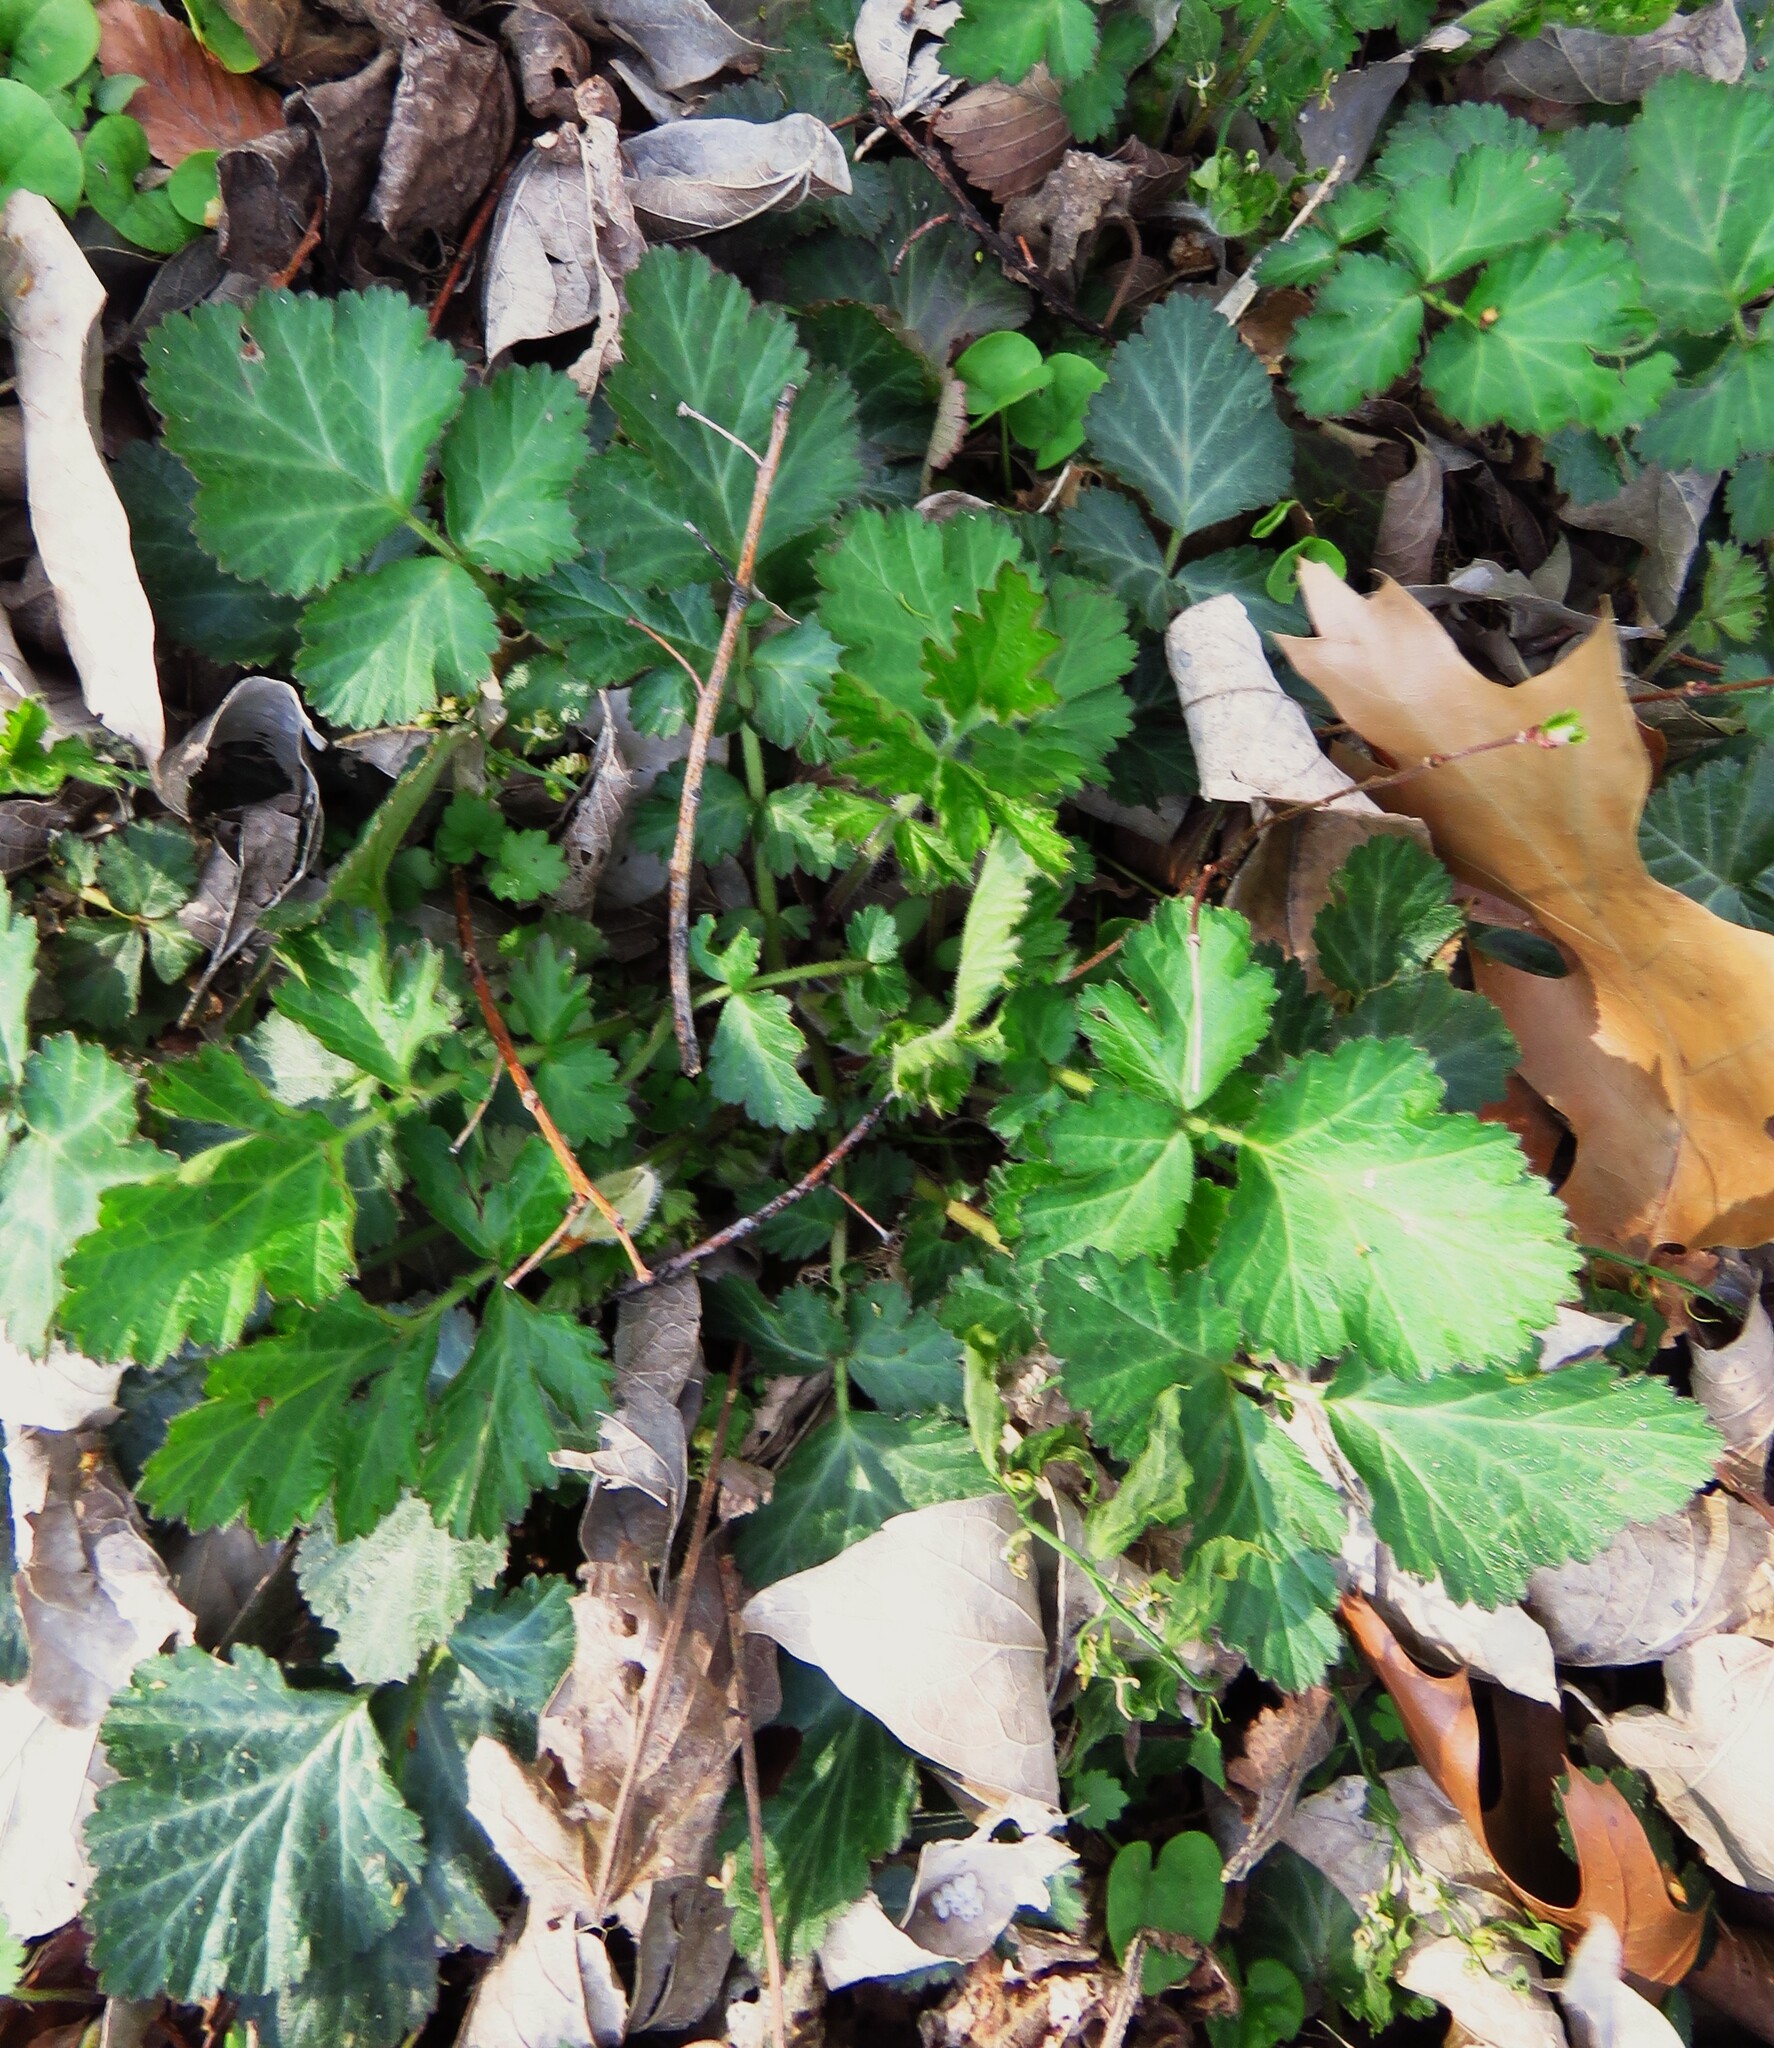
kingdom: Plantae
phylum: Tracheophyta
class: Magnoliopsida
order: Rosales
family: Rosaceae
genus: Geum
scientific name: Geum canadense
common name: White avens
